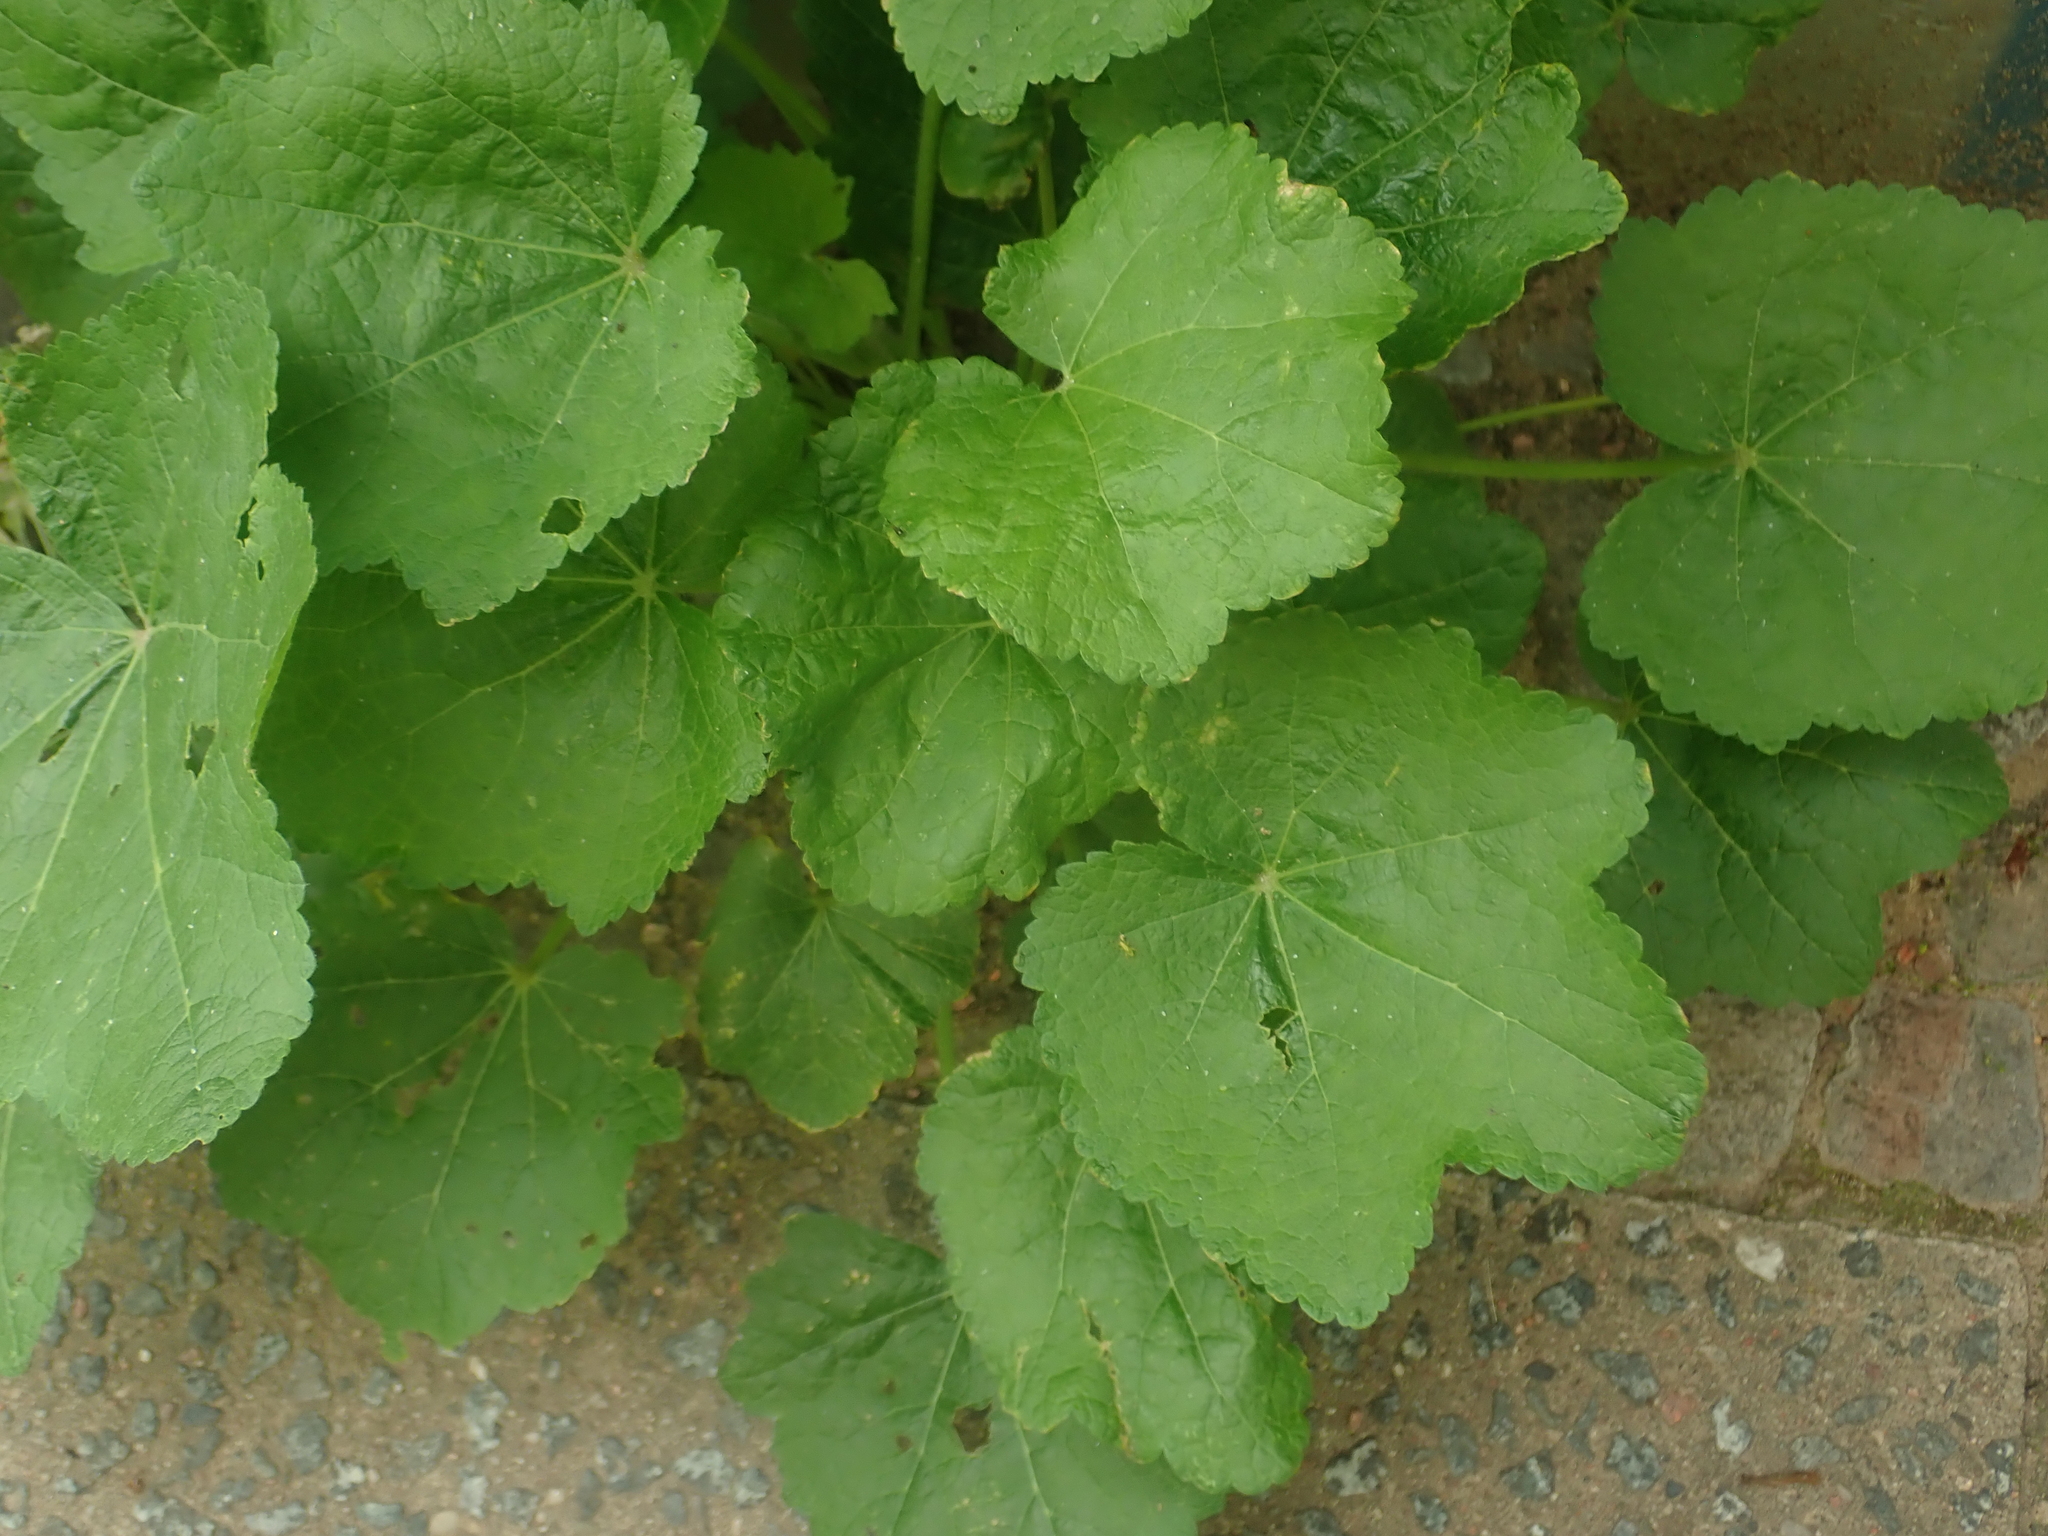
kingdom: Plantae
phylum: Tracheophyta
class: Magnoliopsida
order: Malvales
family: Malvaceae
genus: Alcea
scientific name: Alcea rosea
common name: Hollyhock
